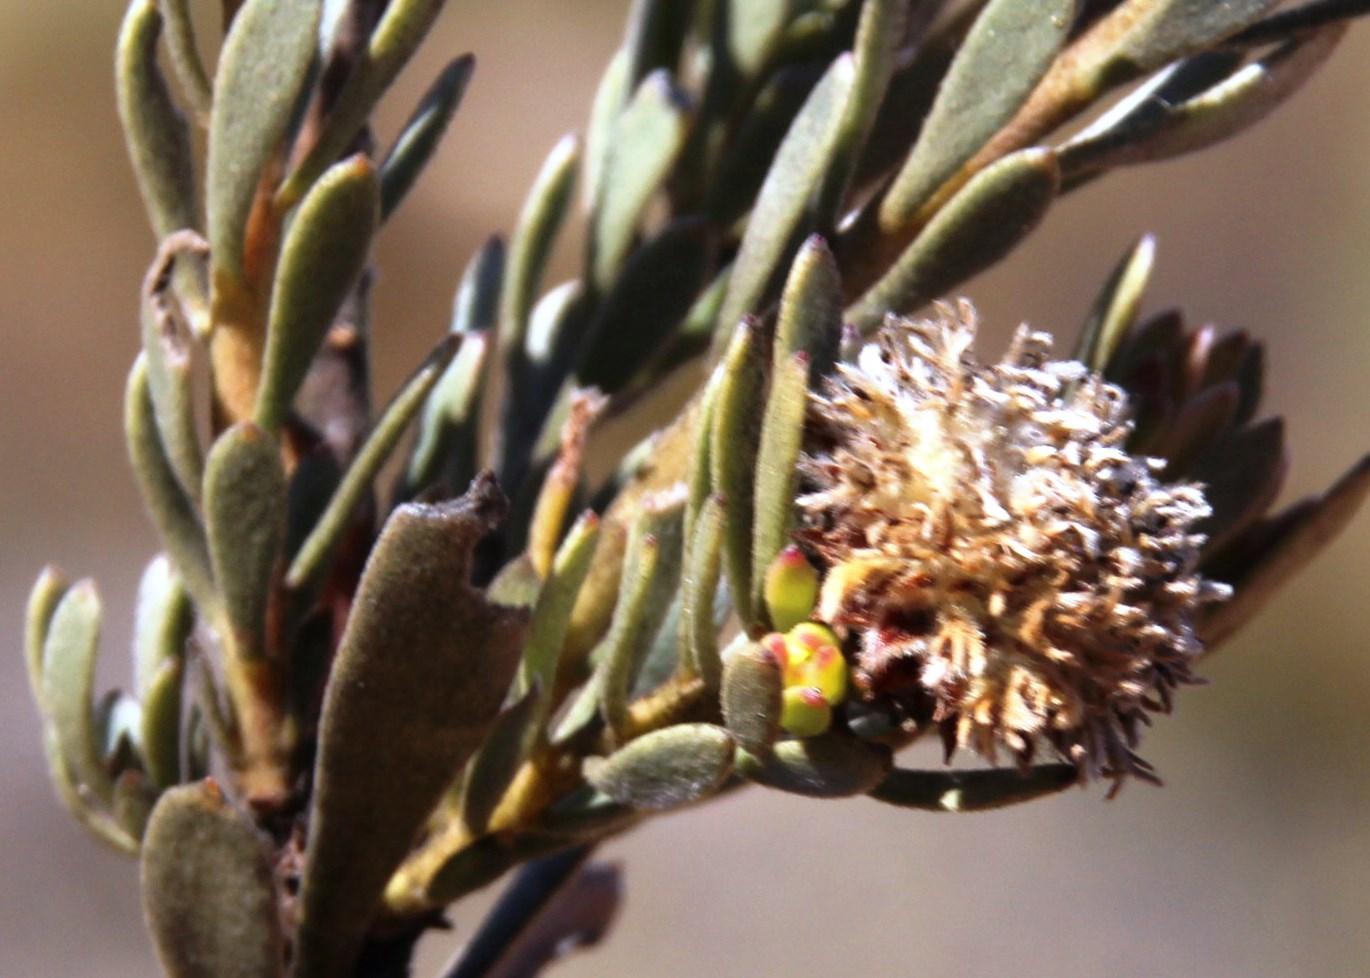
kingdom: Plantae
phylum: Tracheophyta
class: Magnoliopsida
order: Proteales
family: Proteaceae
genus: Leucadendron
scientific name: Leucadendron nitidum
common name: Bokkeveld conebush
